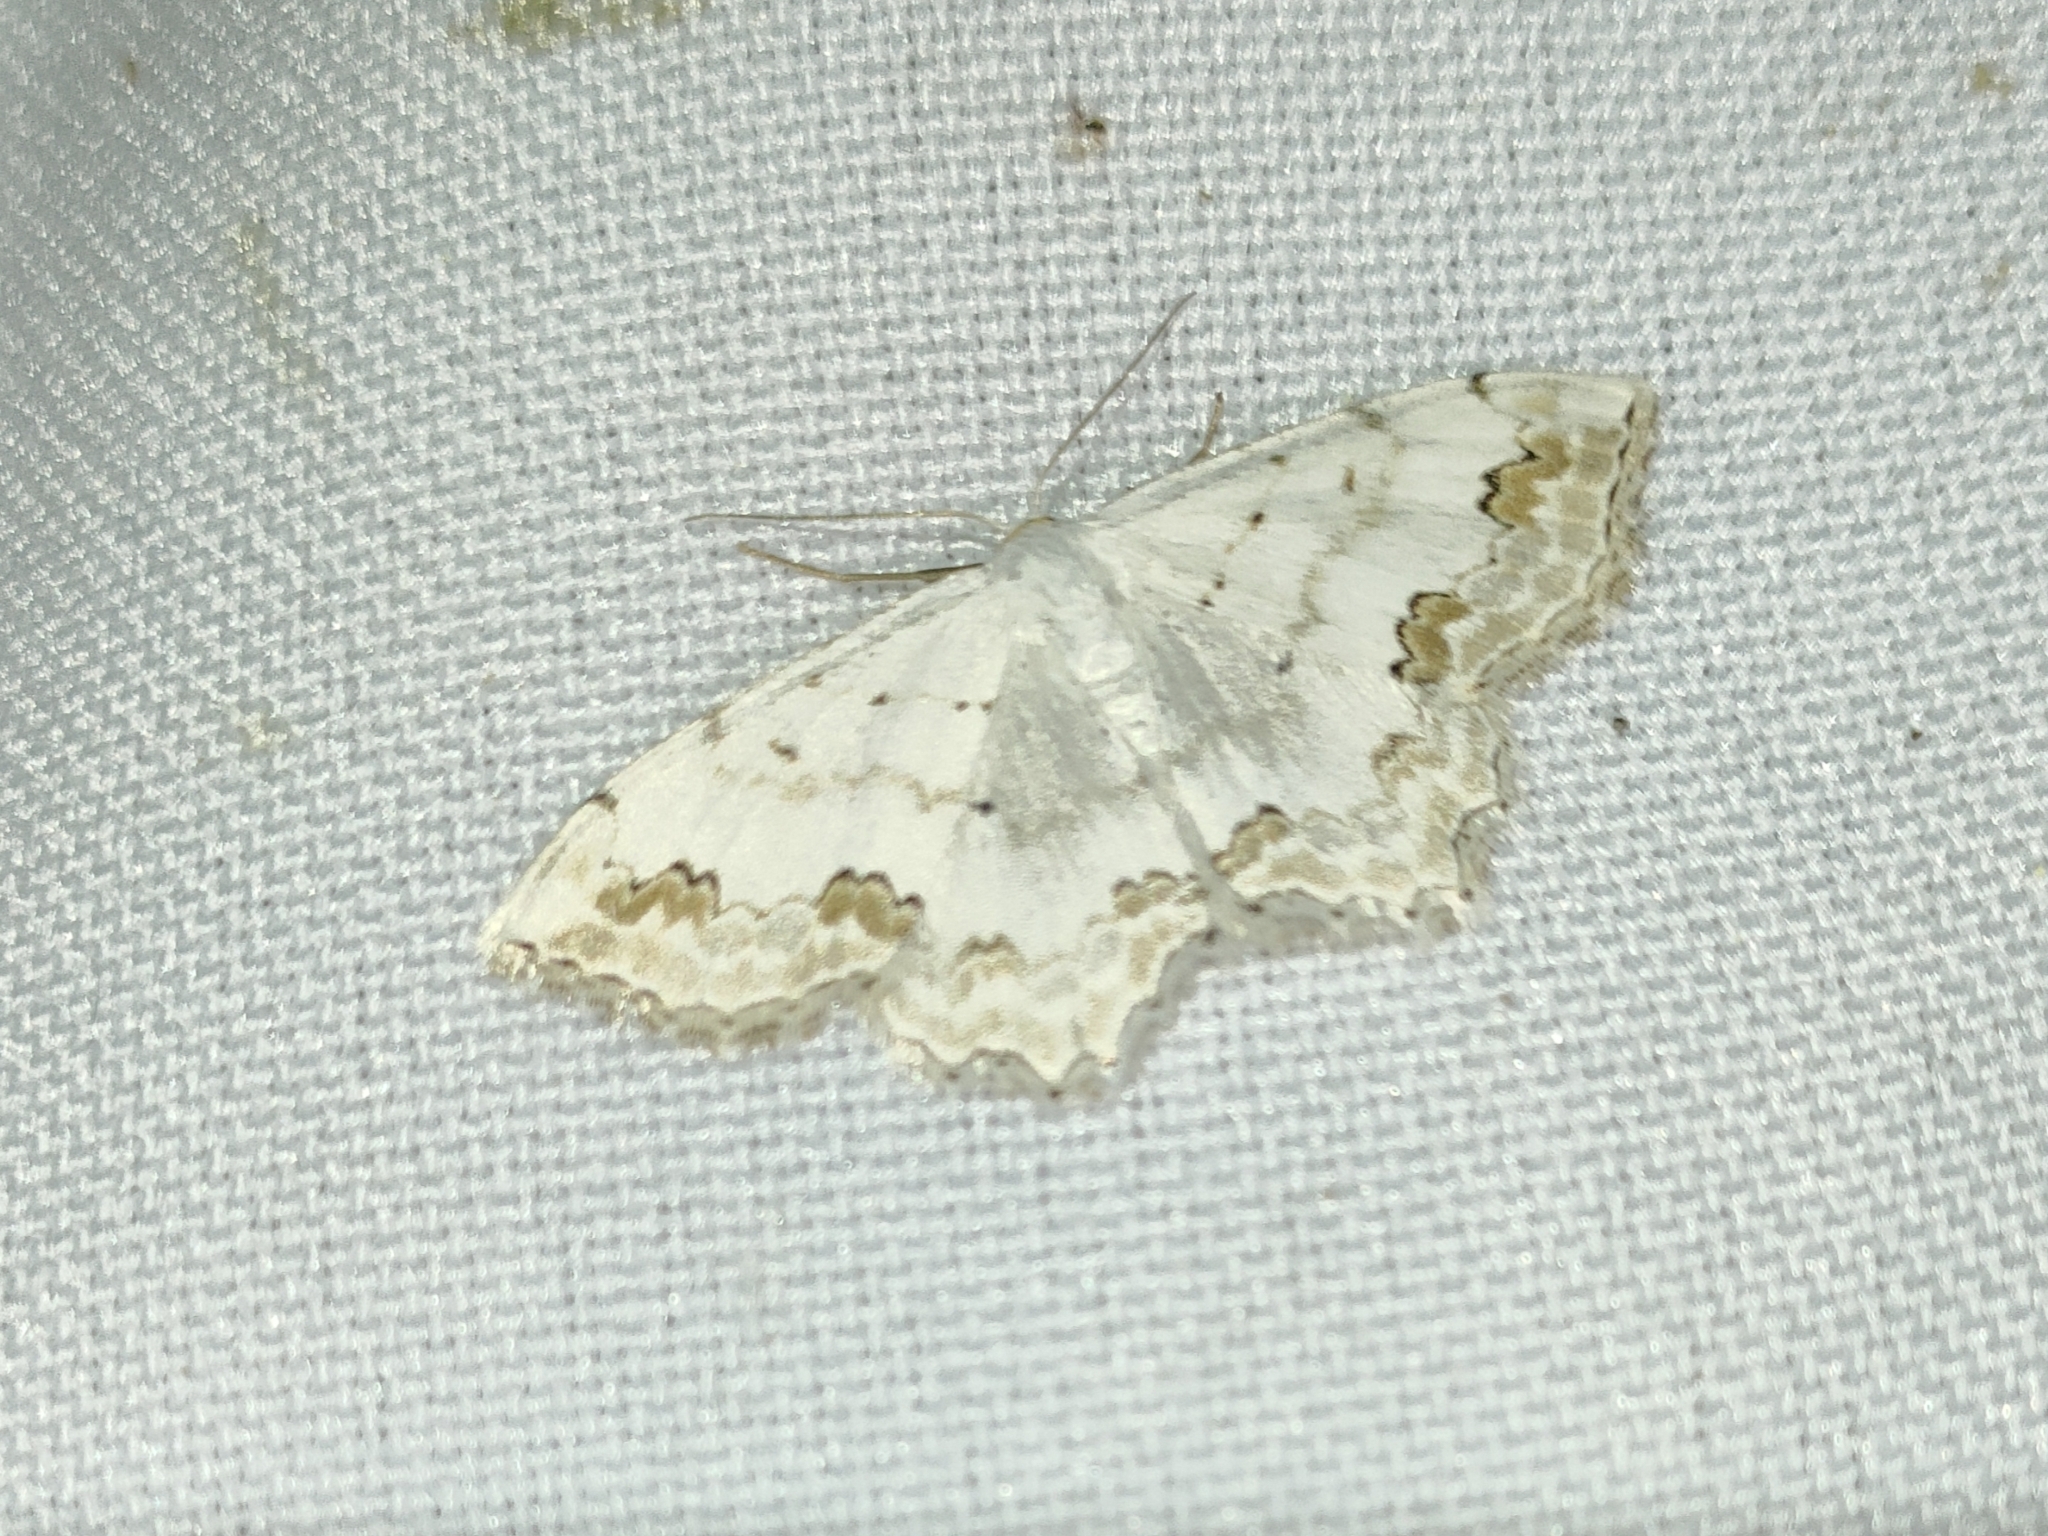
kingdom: Animalia
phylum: Arthropoda
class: Insecta
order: Lepidoptera
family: Geometridae
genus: Scopula
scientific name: Scopula ornata
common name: Lace border
